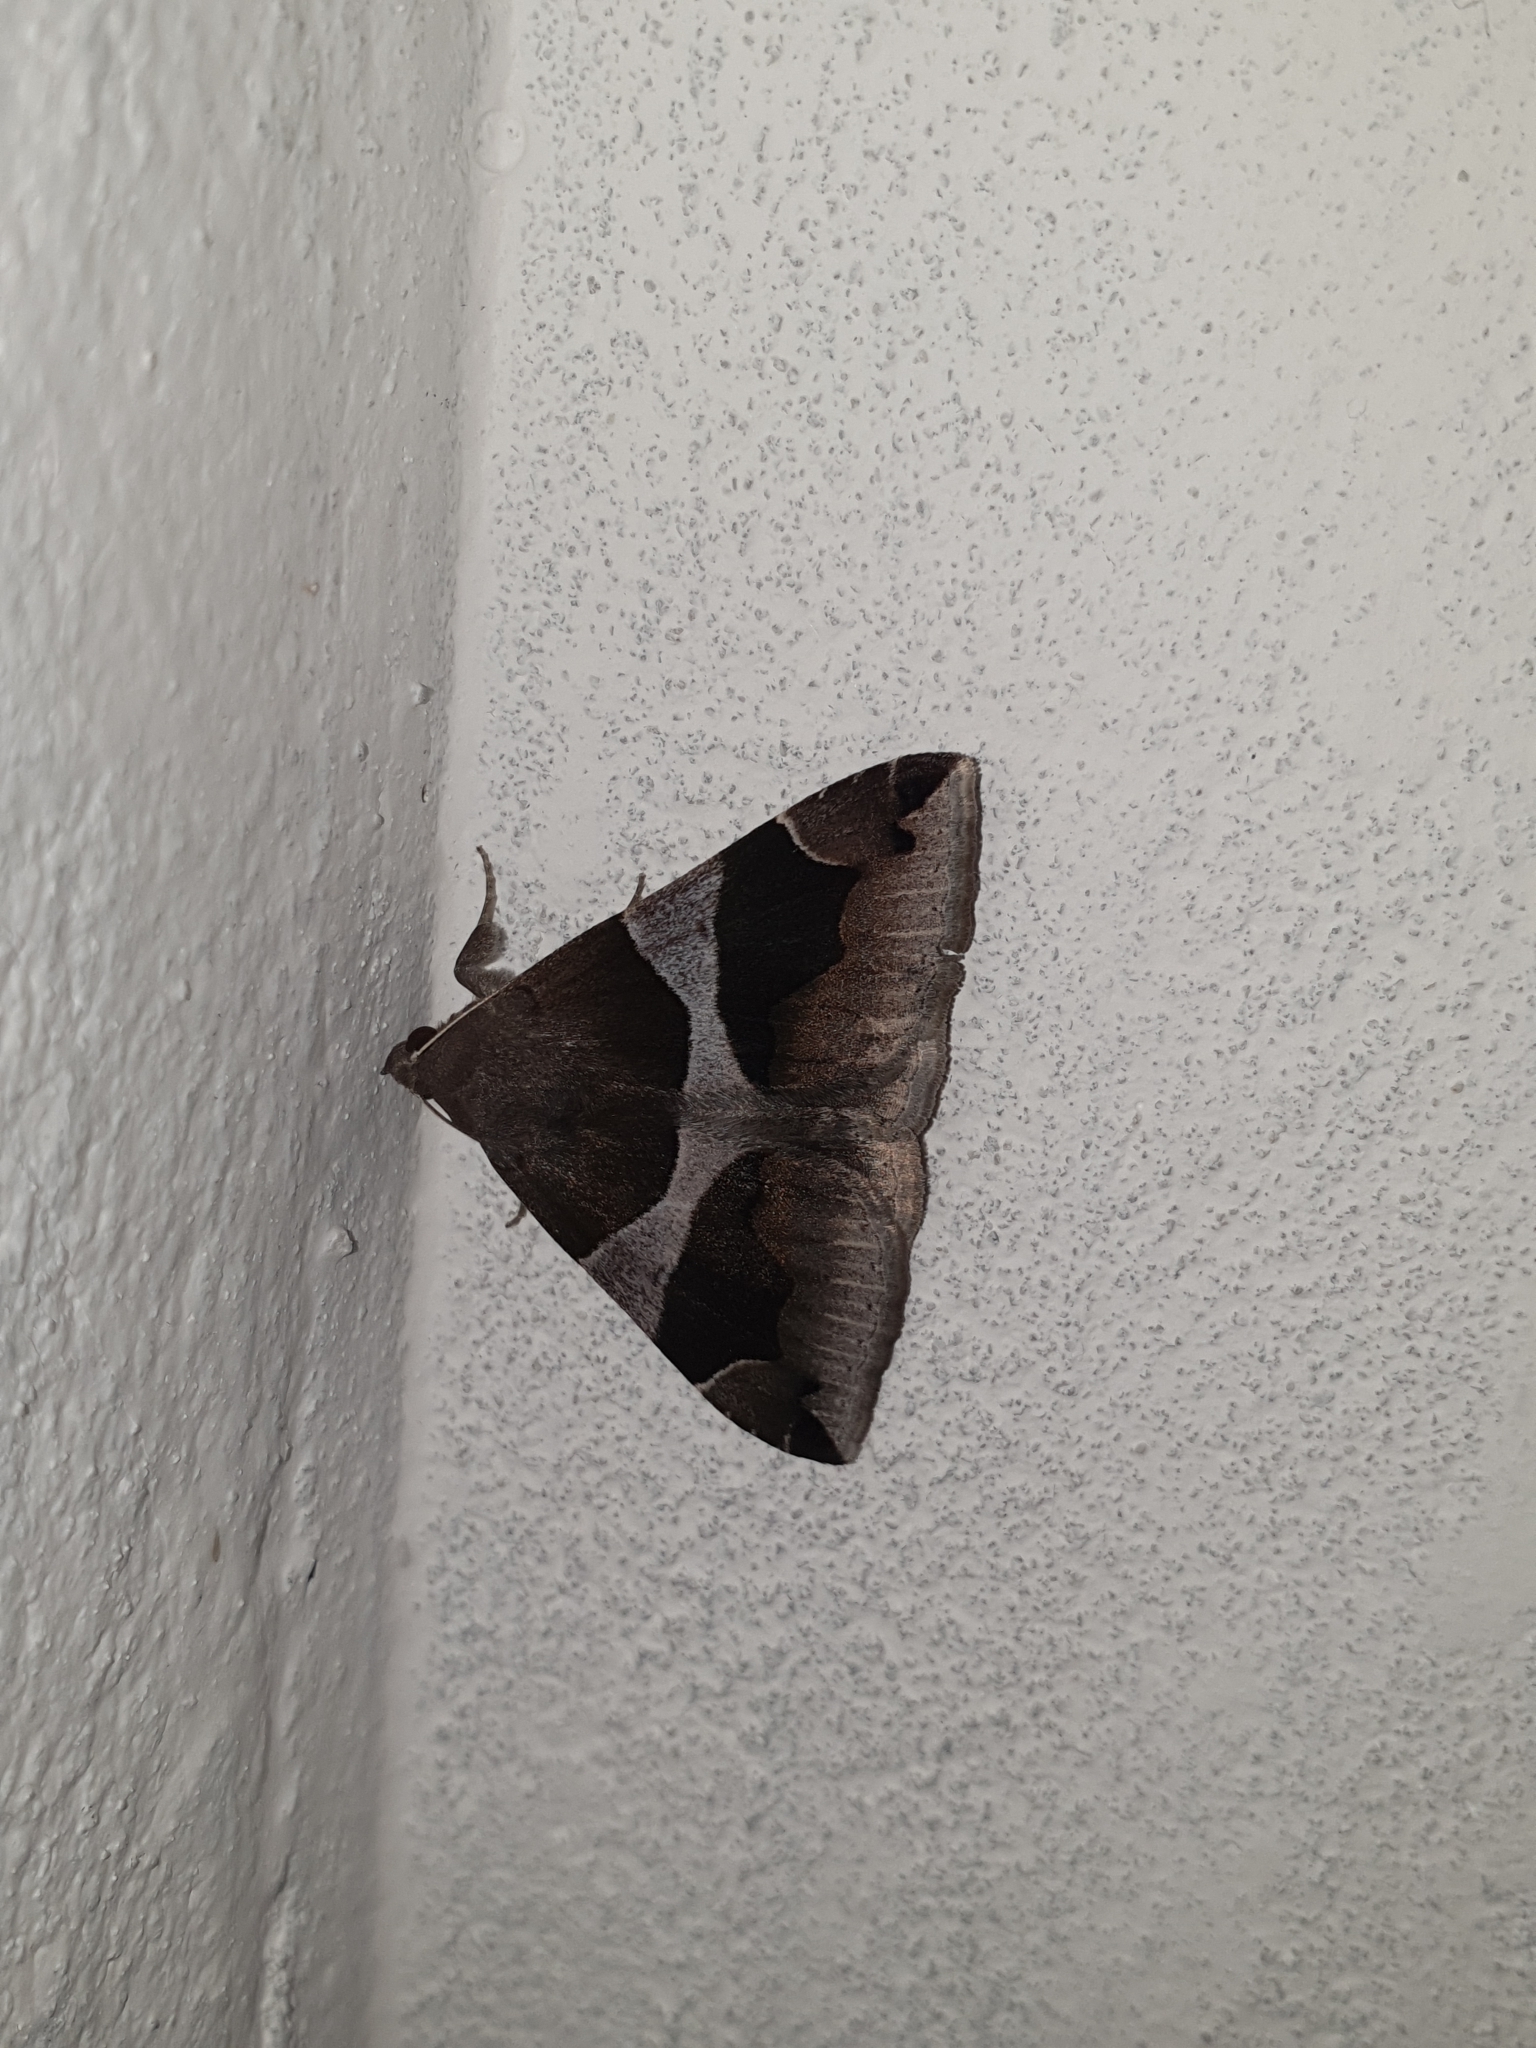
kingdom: Animalia
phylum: Arthropoda
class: Insecta
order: Lepidoptera
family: Erebidae
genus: Dysgonia
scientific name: Dysgonia algira
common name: Passenger
